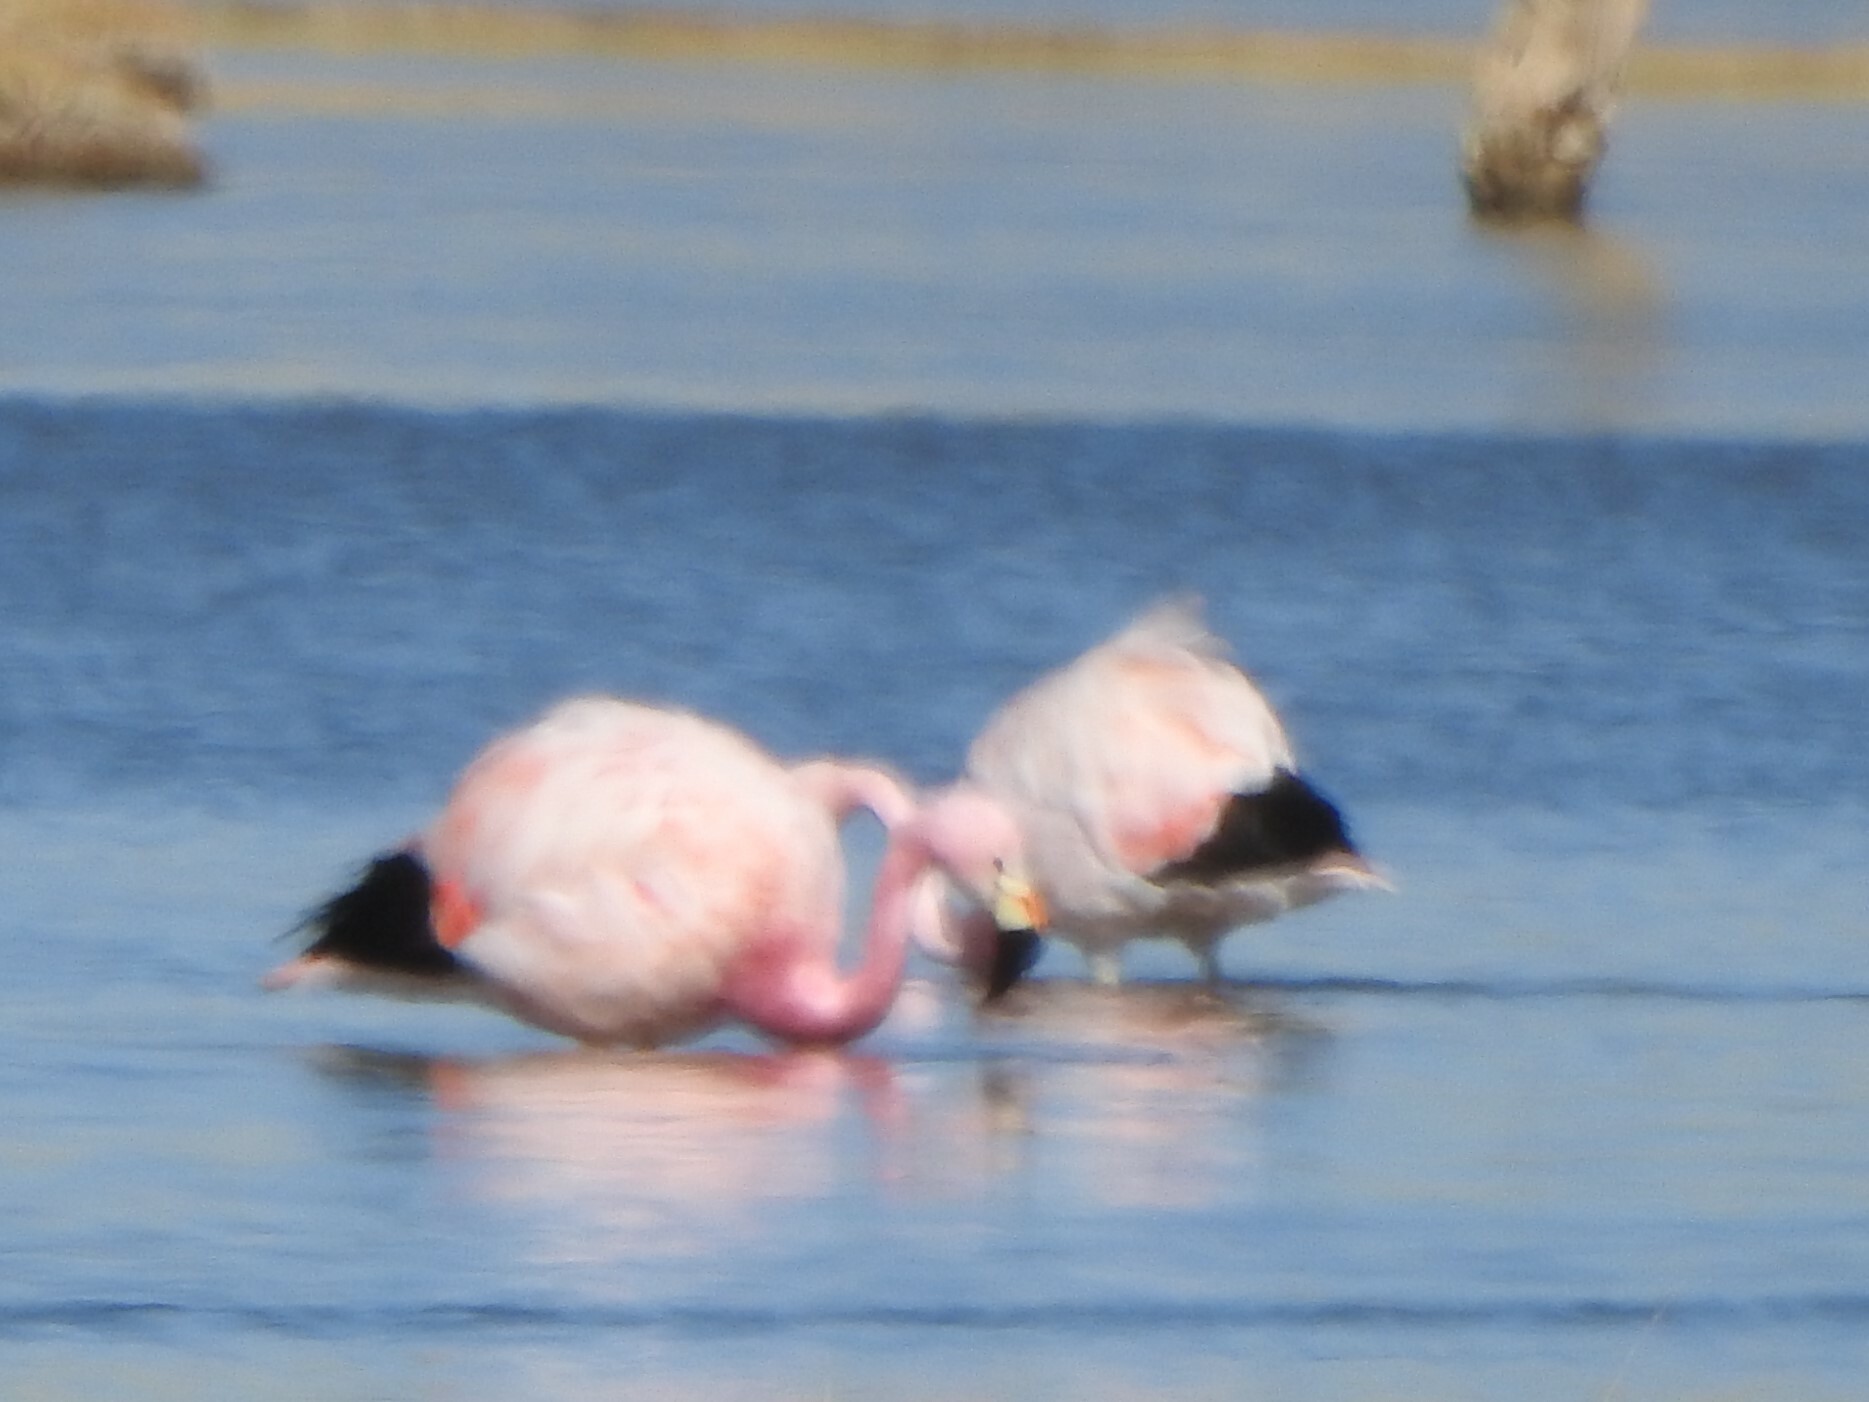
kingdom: Animalia
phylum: Chordata
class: Aves
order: Phoenicopteriformes
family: Phoenicopteridae
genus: Phoenicoparrus
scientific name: Phoenicoparrus andinus
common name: Andean flamingo
